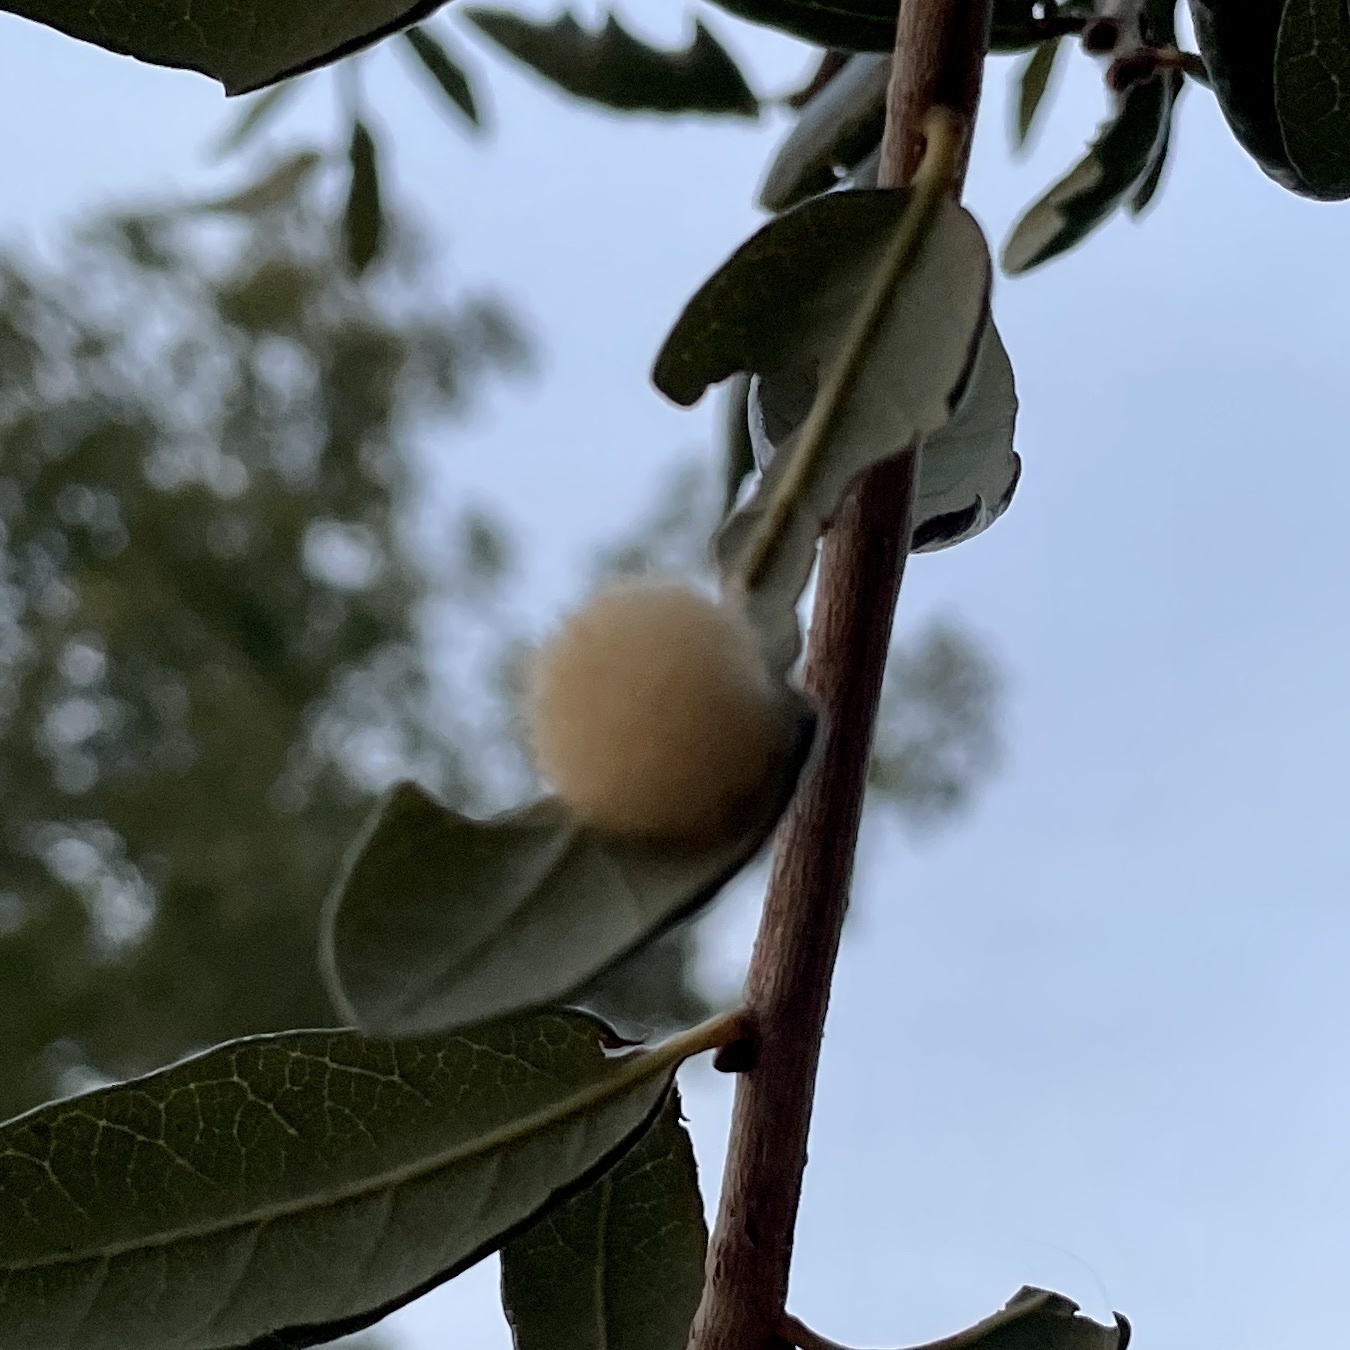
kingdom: Animalia
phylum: Arthropoda
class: Insecta
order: Hymenoptera
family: Cynipidae
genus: Andricus
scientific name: Andricus Druon quercuslanigerum
